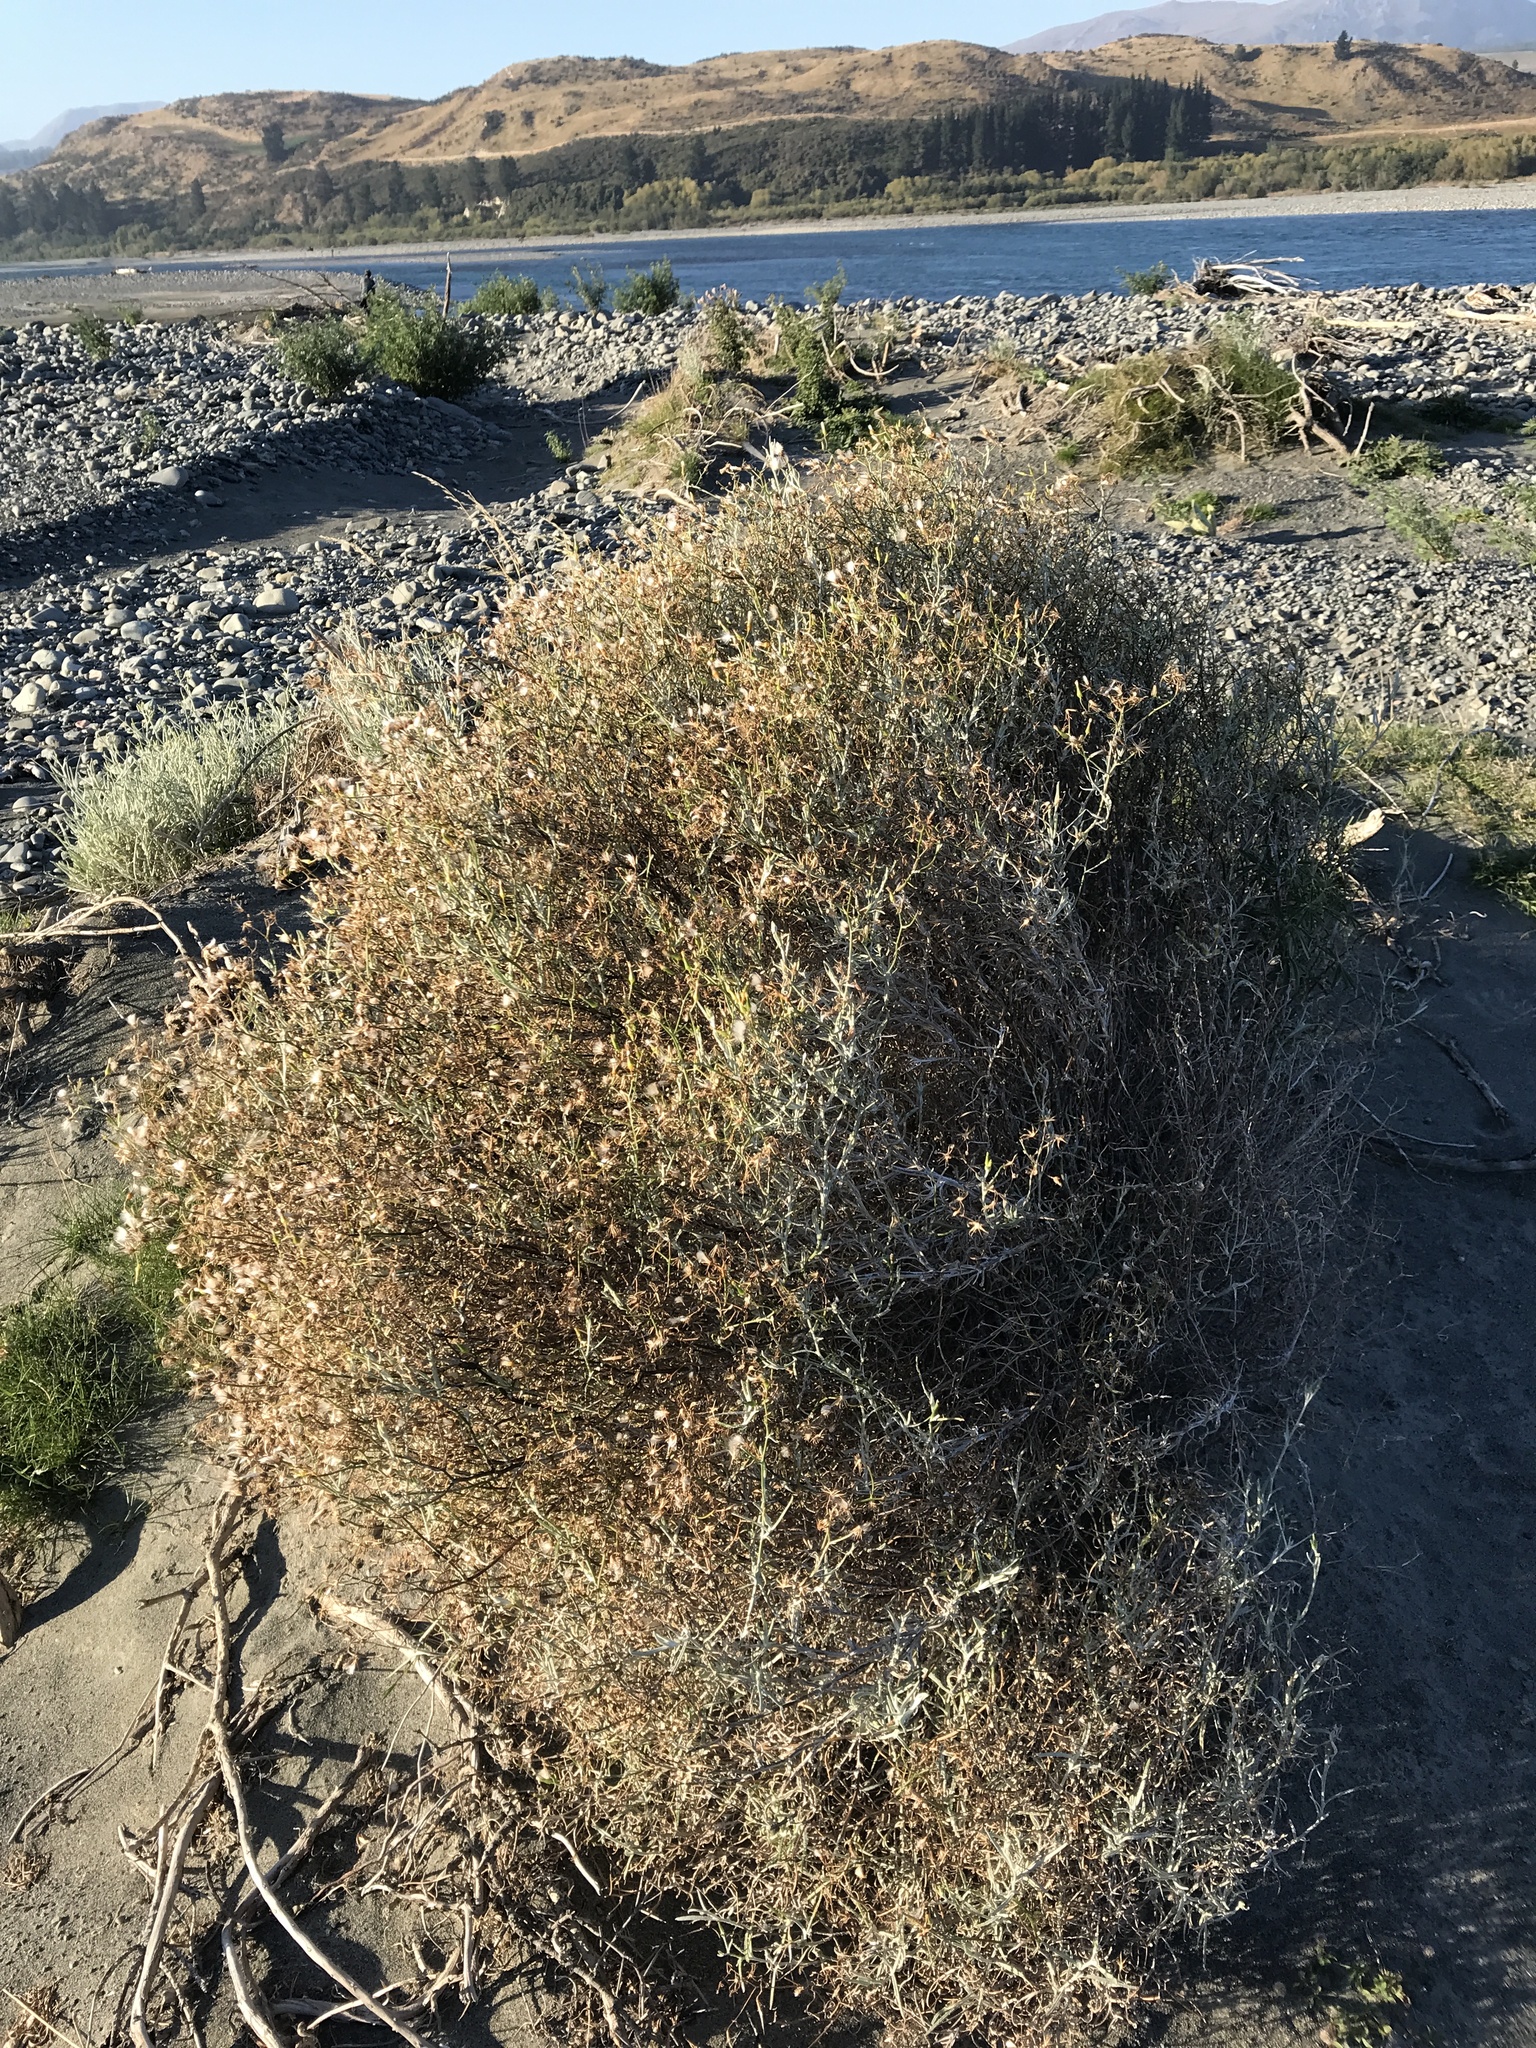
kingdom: Plantae
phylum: Tracheophyta
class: Magnoliopsida
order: Asterales
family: Asteraceae
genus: Senecio
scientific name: Senecio quadridentatus
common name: Cotton fireweed
